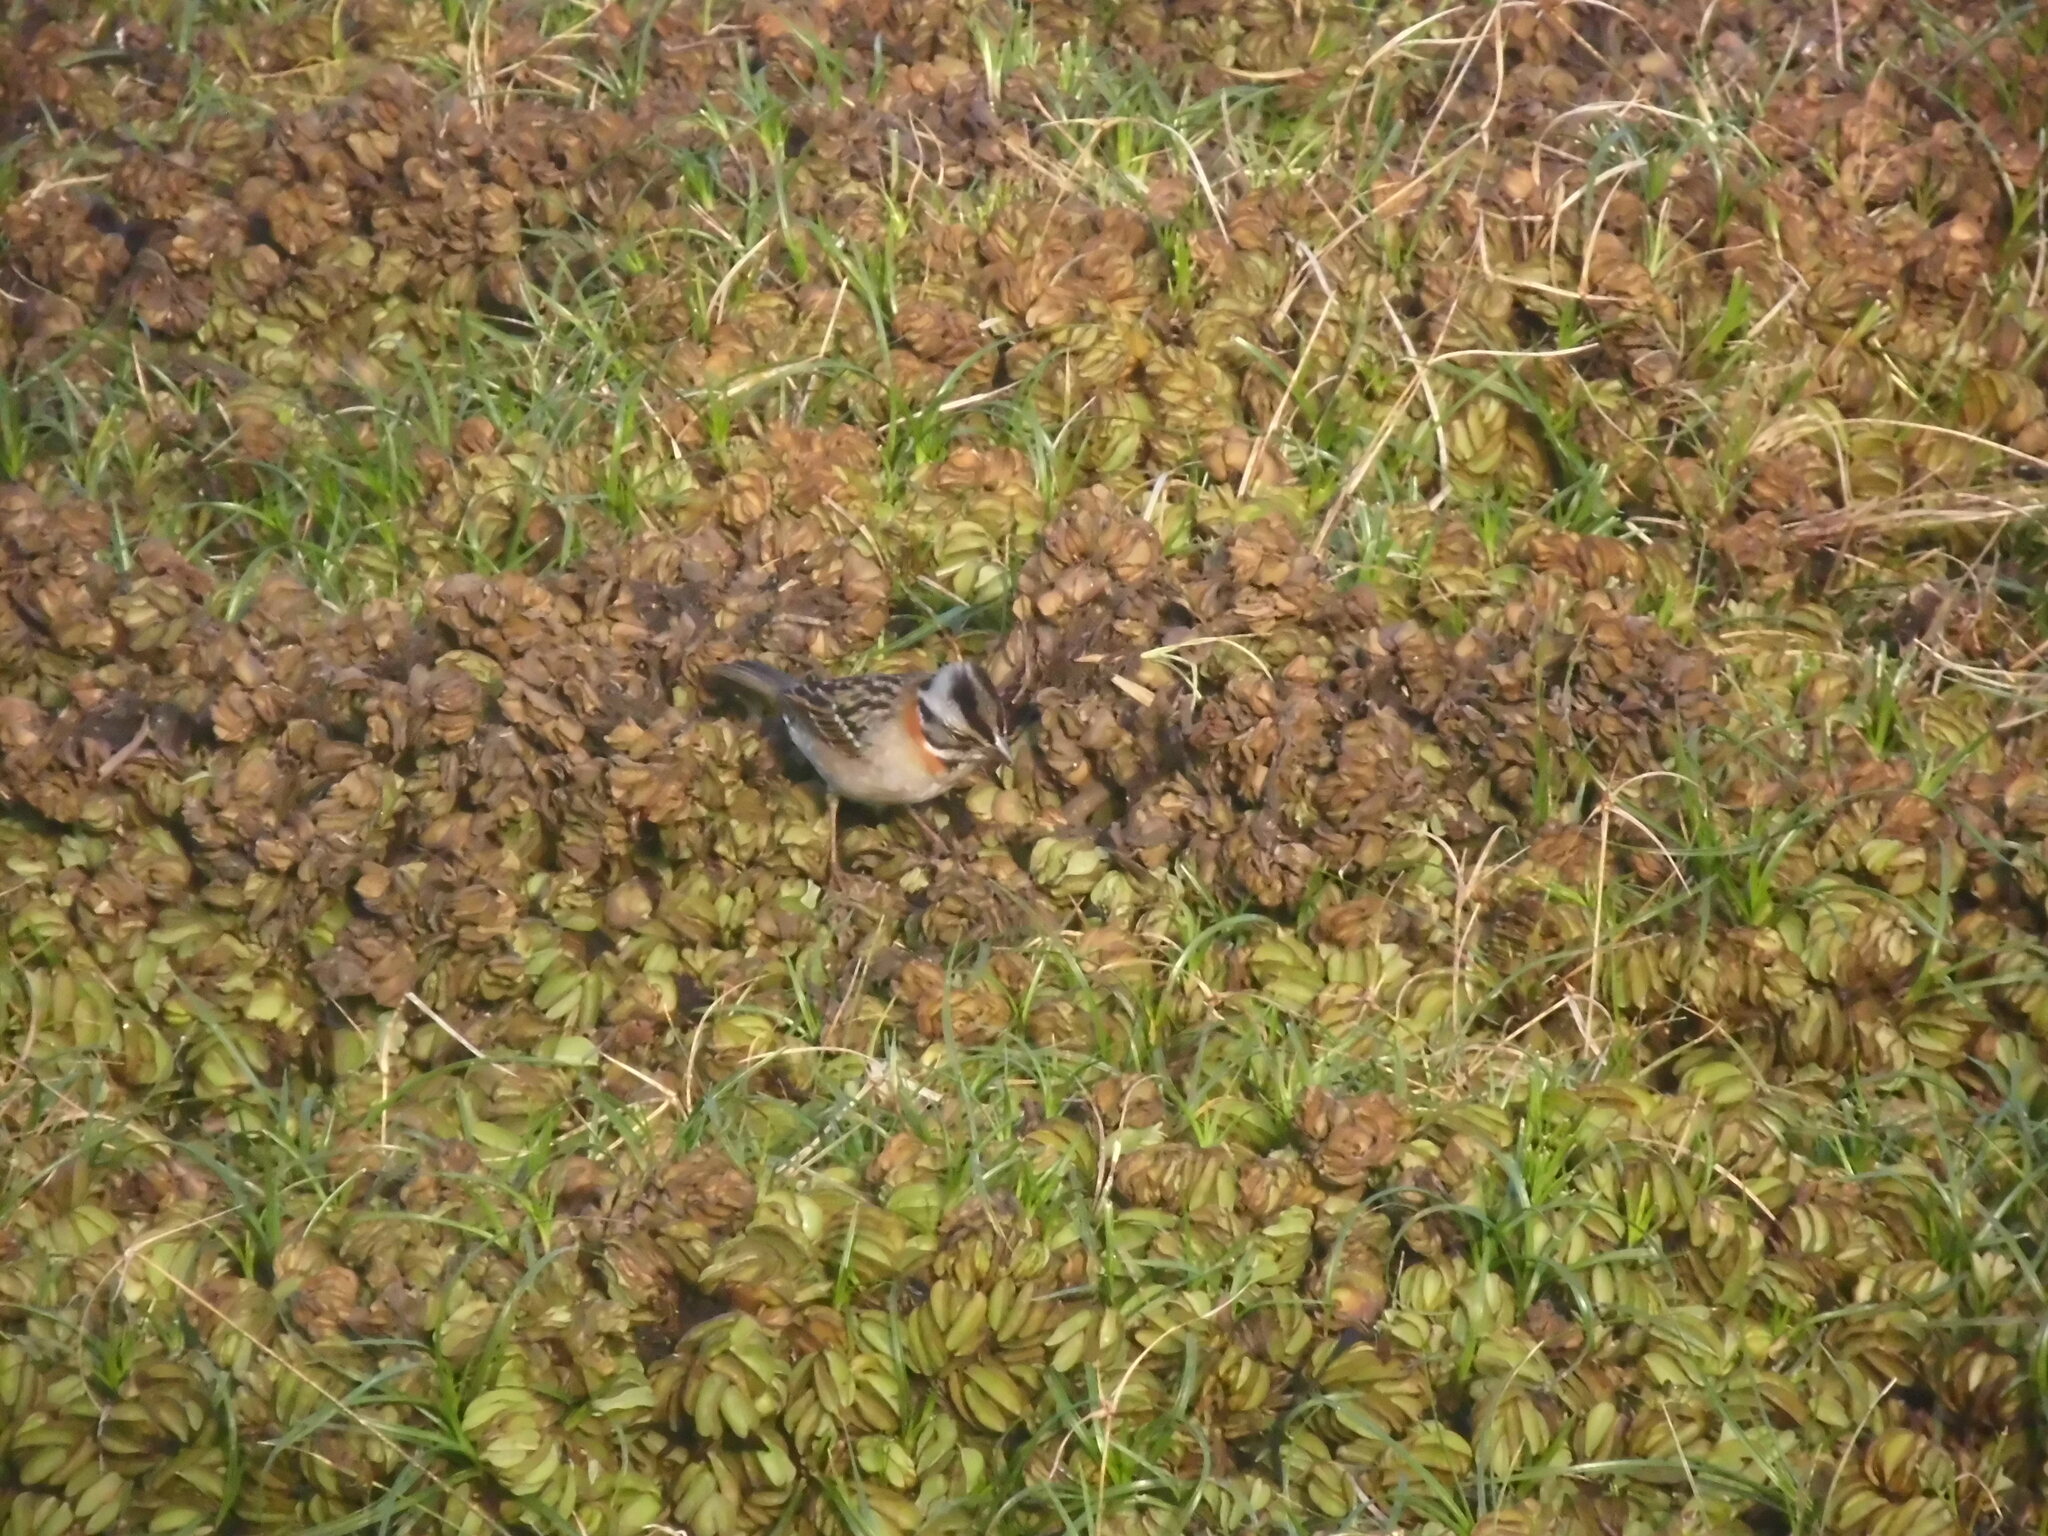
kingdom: Animalia
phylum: Chordata
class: Aves
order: Passeriformes
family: Passerellidae
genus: Zonotrichia
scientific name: Zonotrichia capensis
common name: Rufous-collared sparrow
